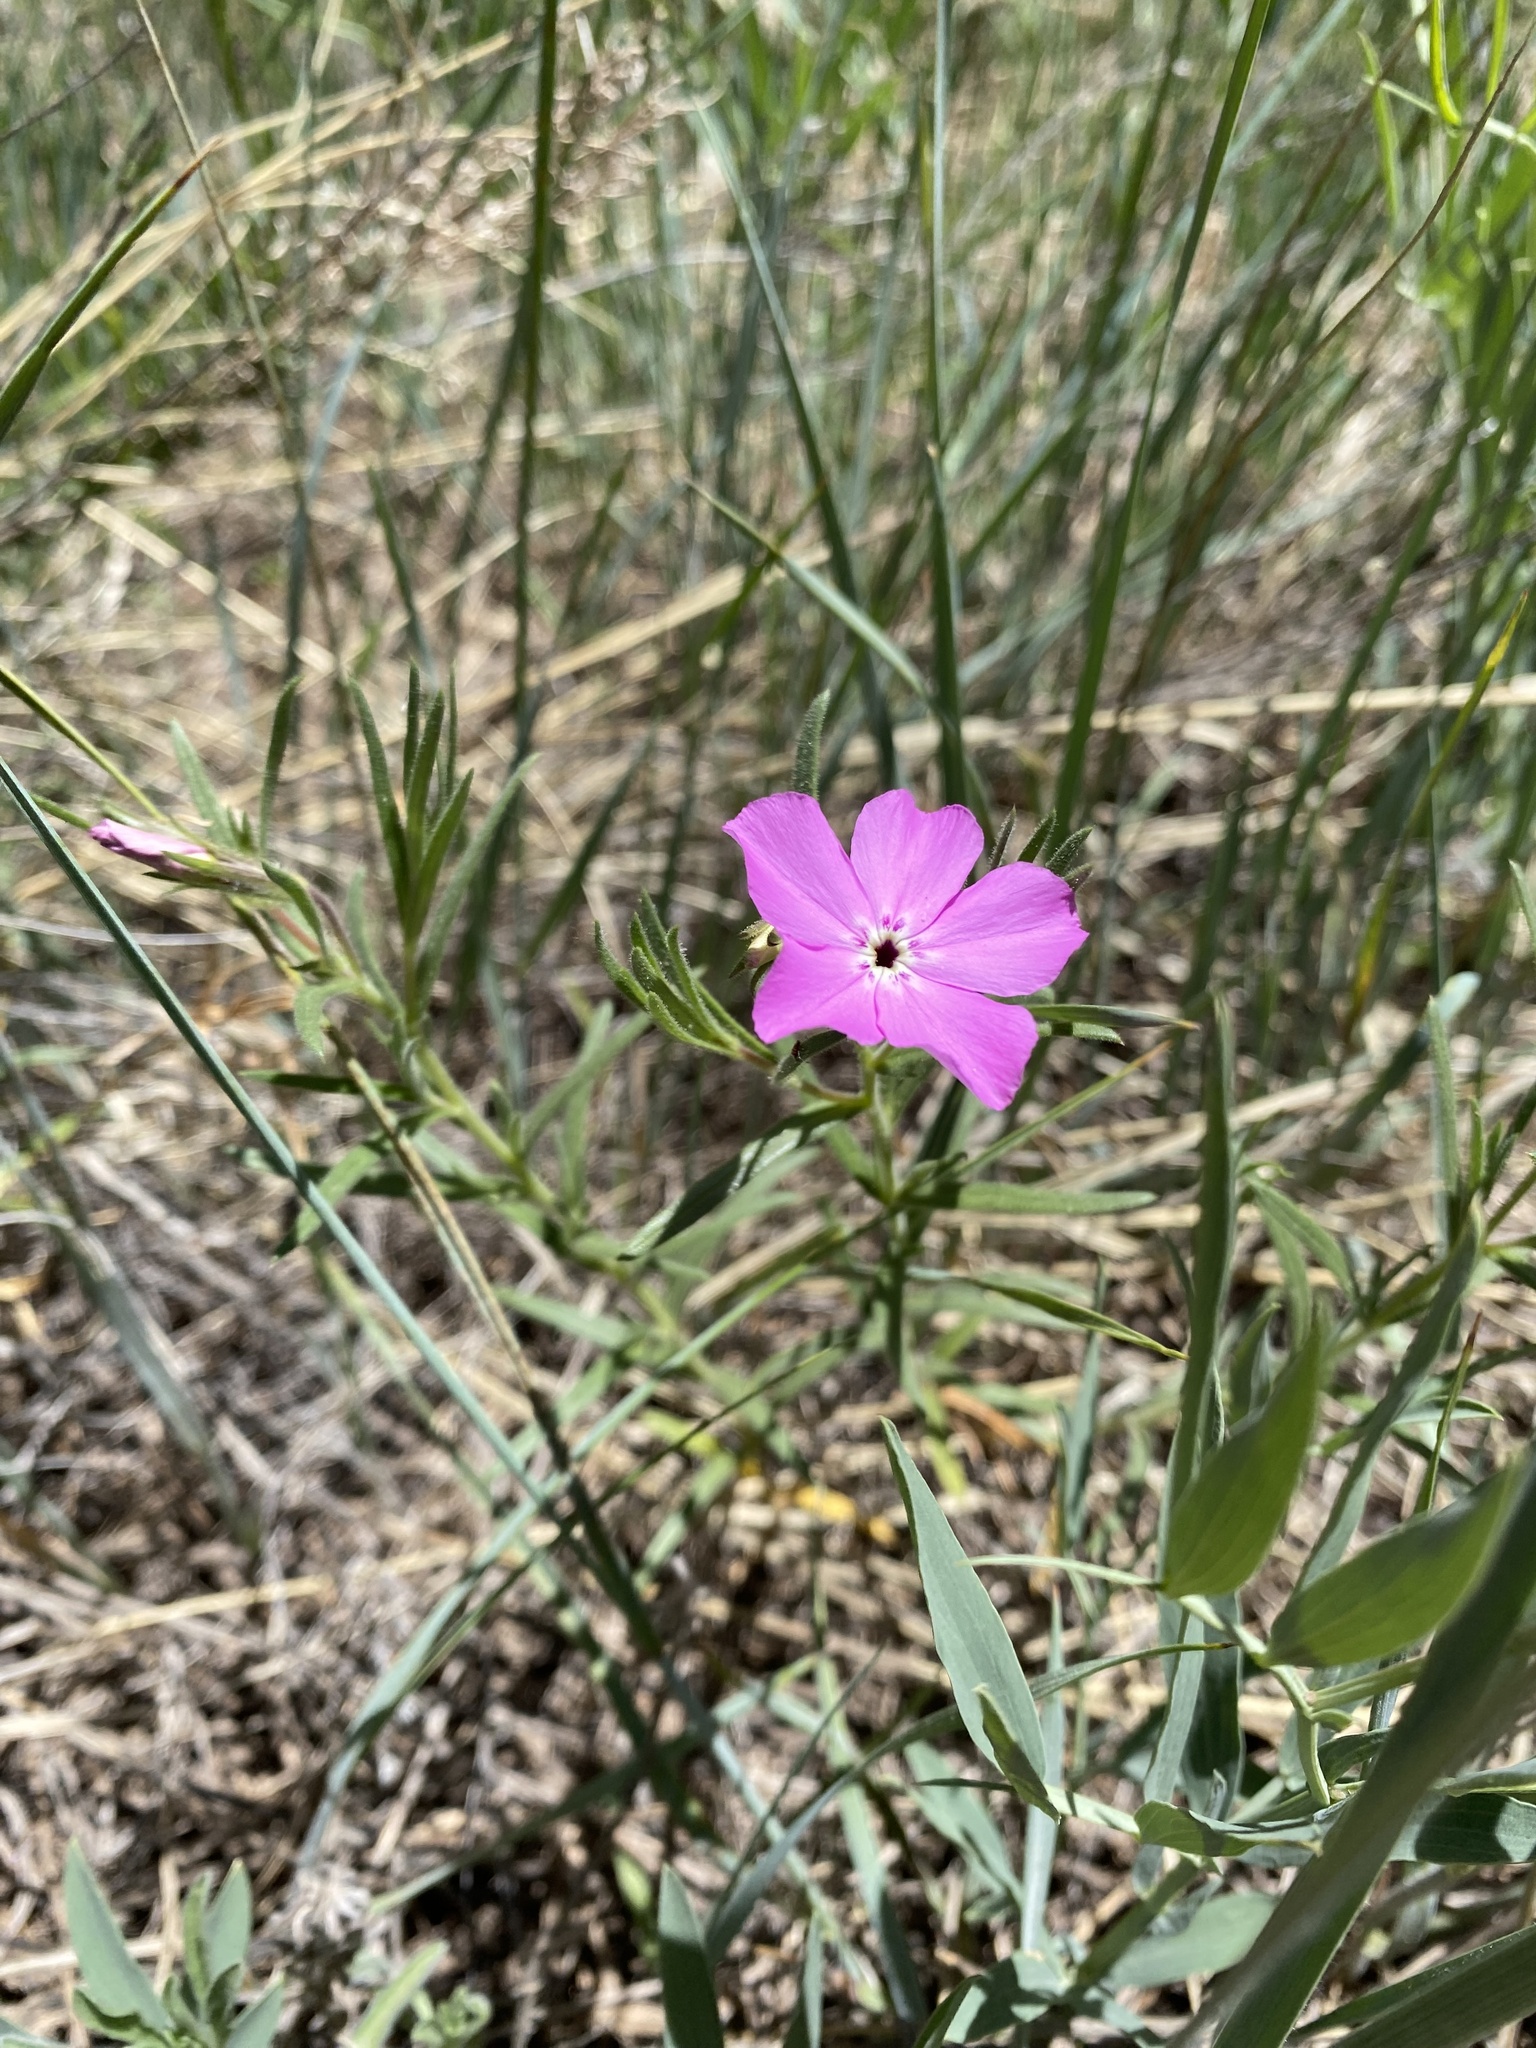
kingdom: Plantae
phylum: Tracheophyta
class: Magnoliopsida
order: Ericales
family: Polemoniaceae
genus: Phlox
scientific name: Phlox nana
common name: Santa fe phlox
